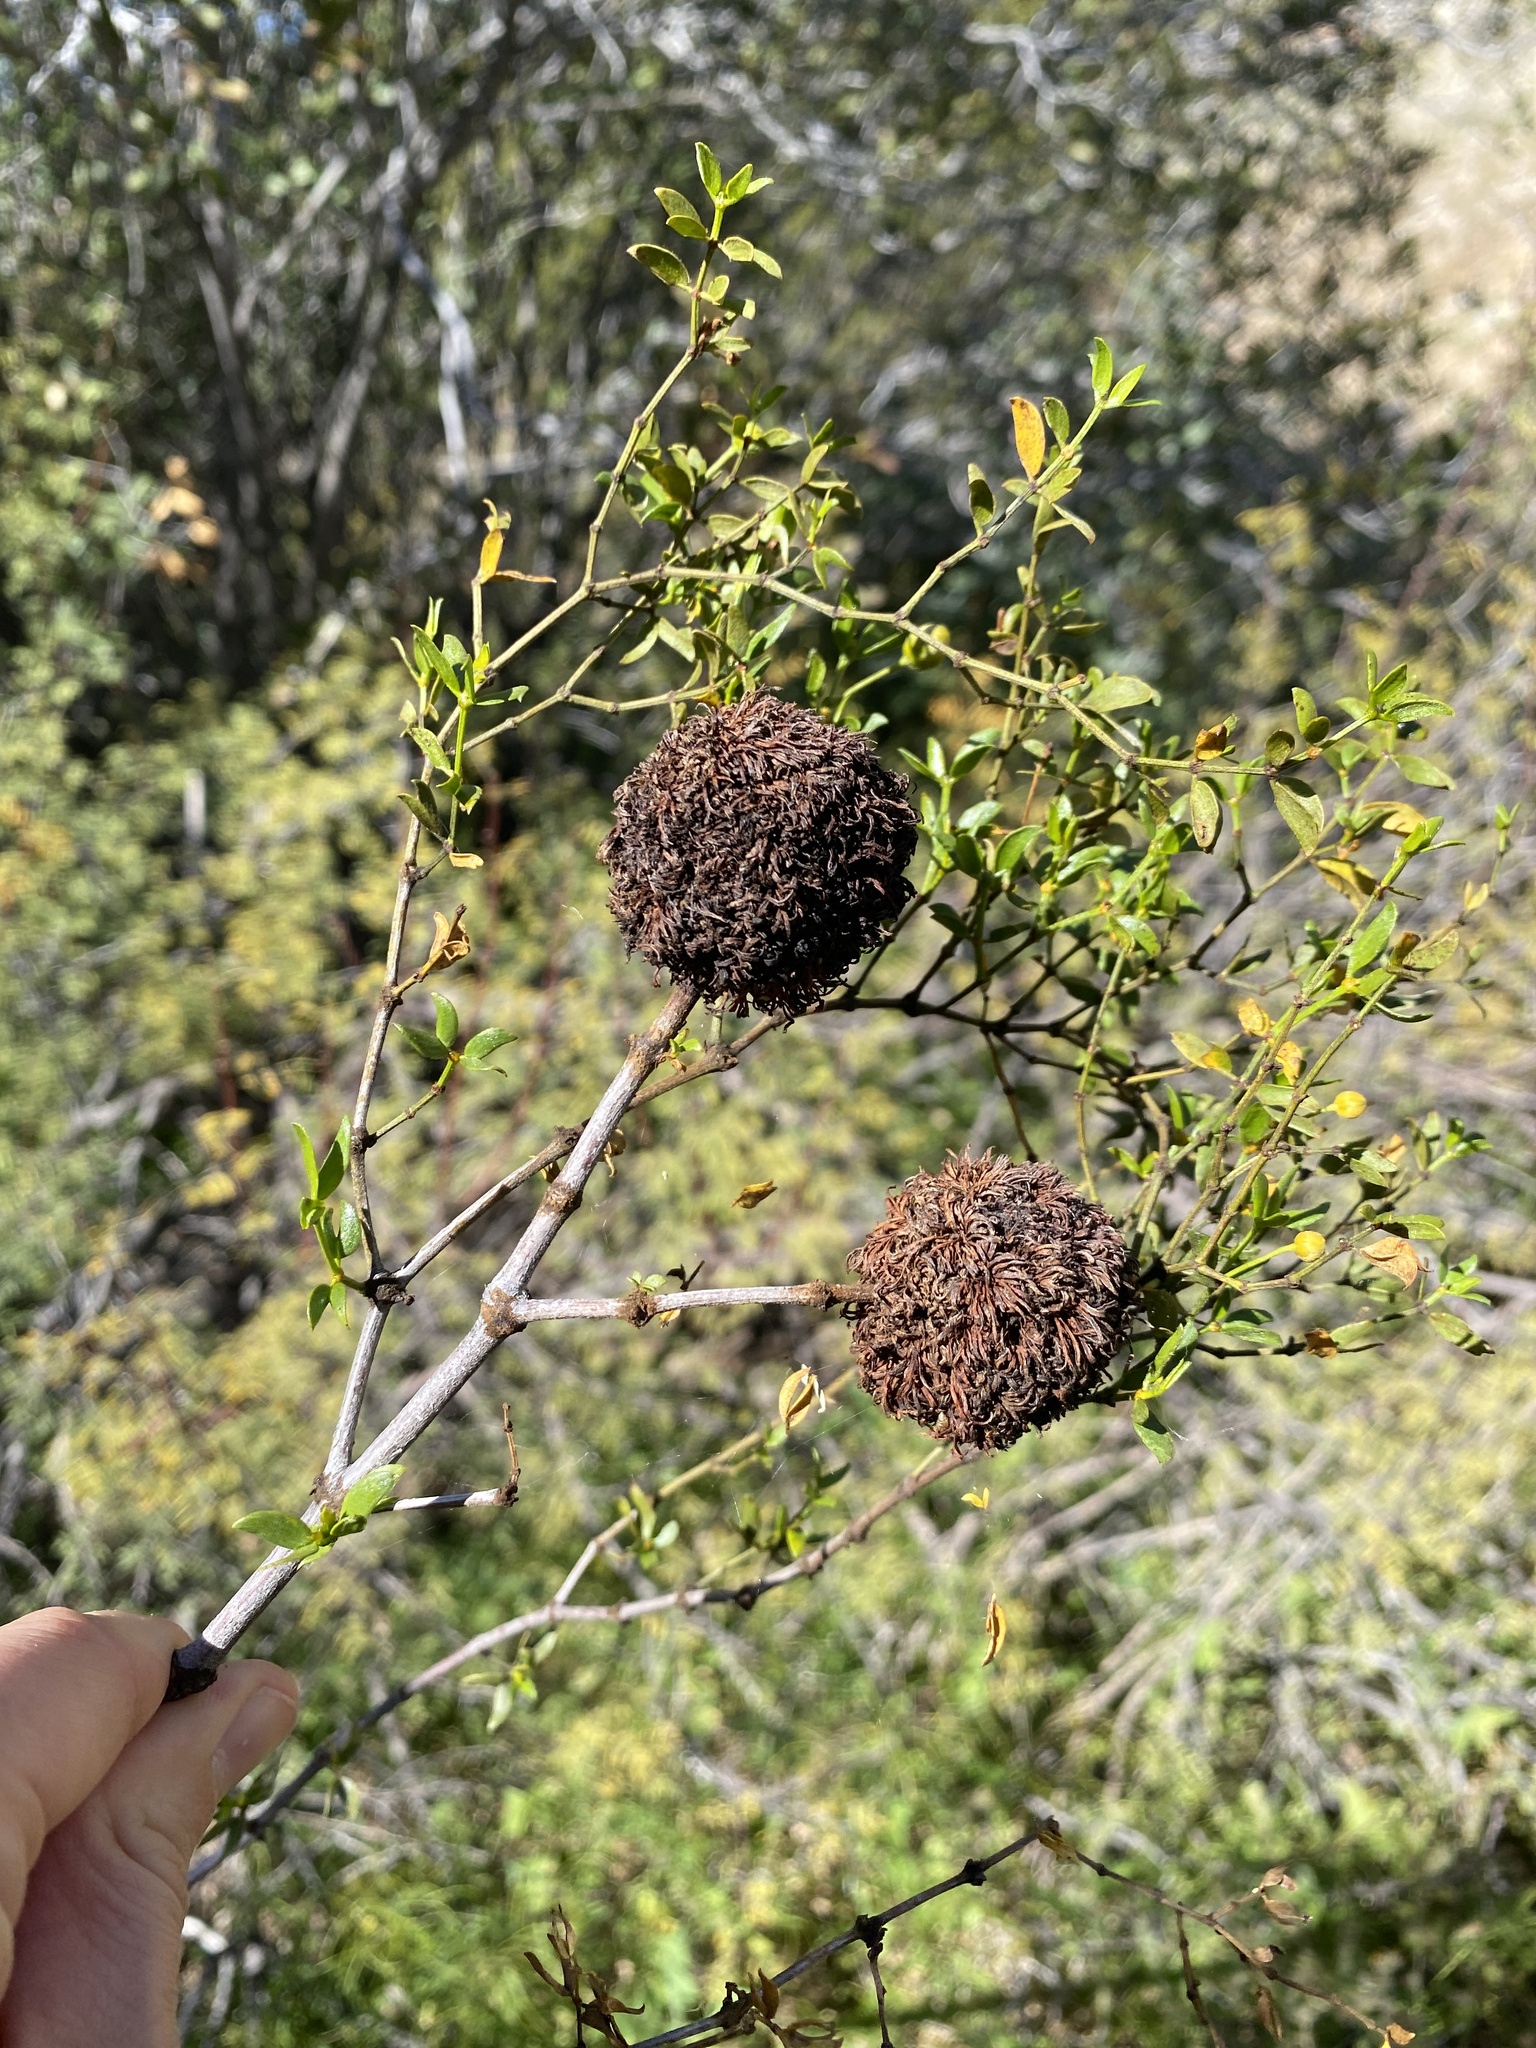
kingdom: Animalia
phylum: Arthropoda
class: Insecta
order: Diptera
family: Cecidomyiidae
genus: Asphondylia
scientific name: Asphondylia auripila
